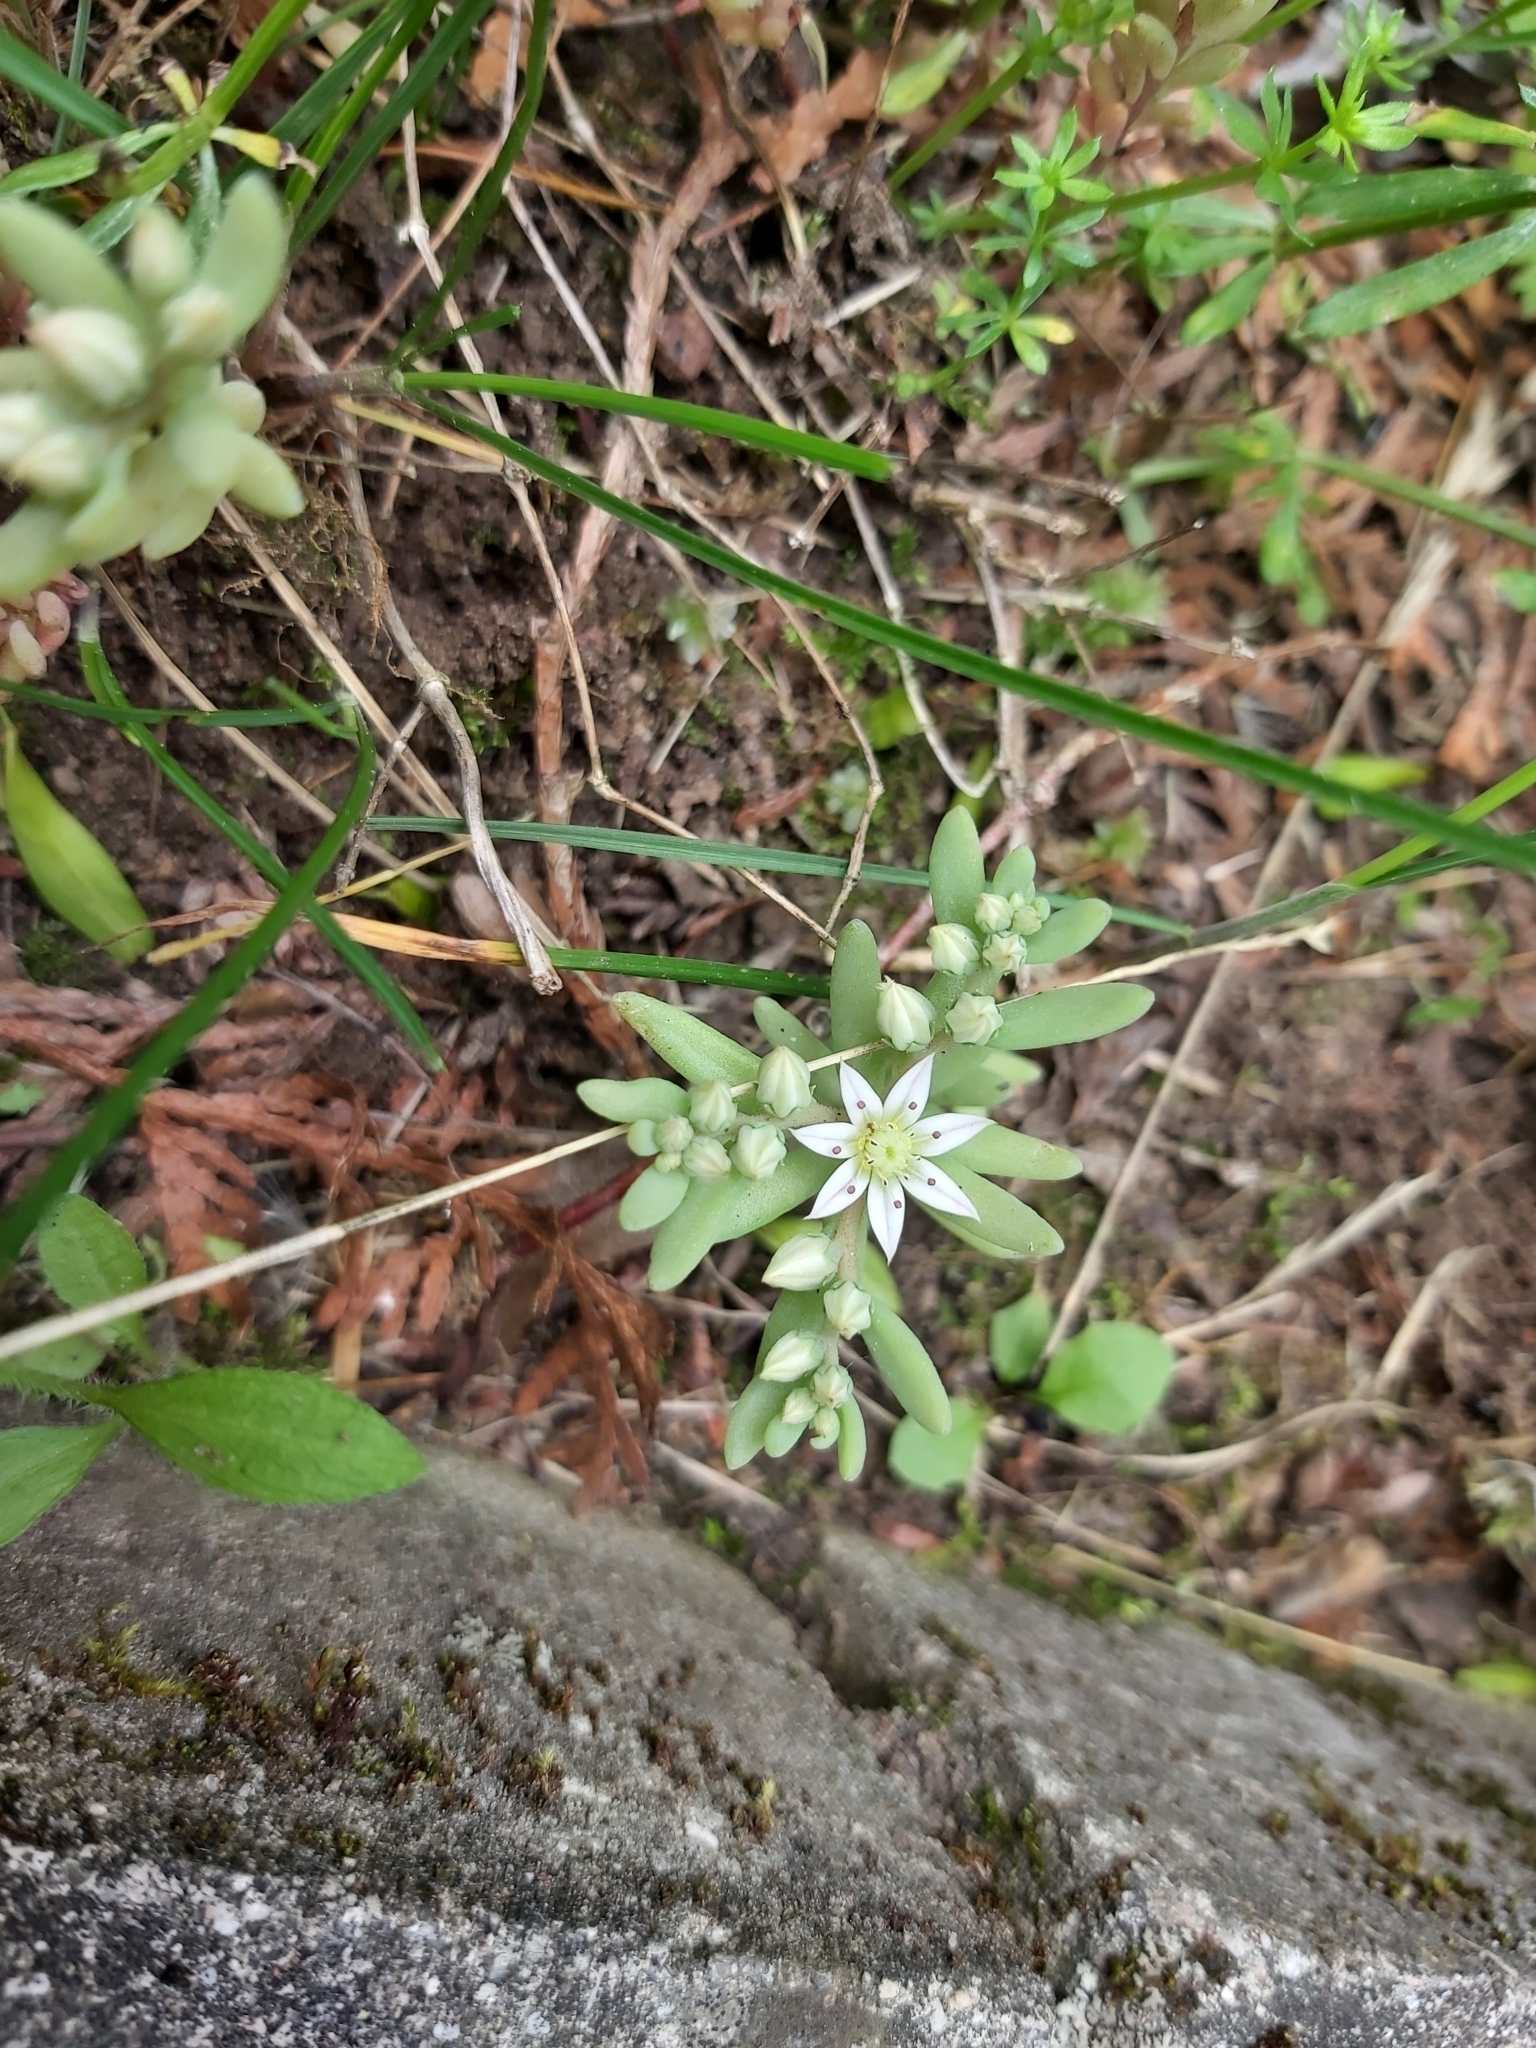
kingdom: Plantae
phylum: Tracheophyta
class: Magnoliopsida
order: Saxifragales
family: Crassulaceae
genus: Sedum
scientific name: Sedum hispanicum
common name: Spanish stonecrop
